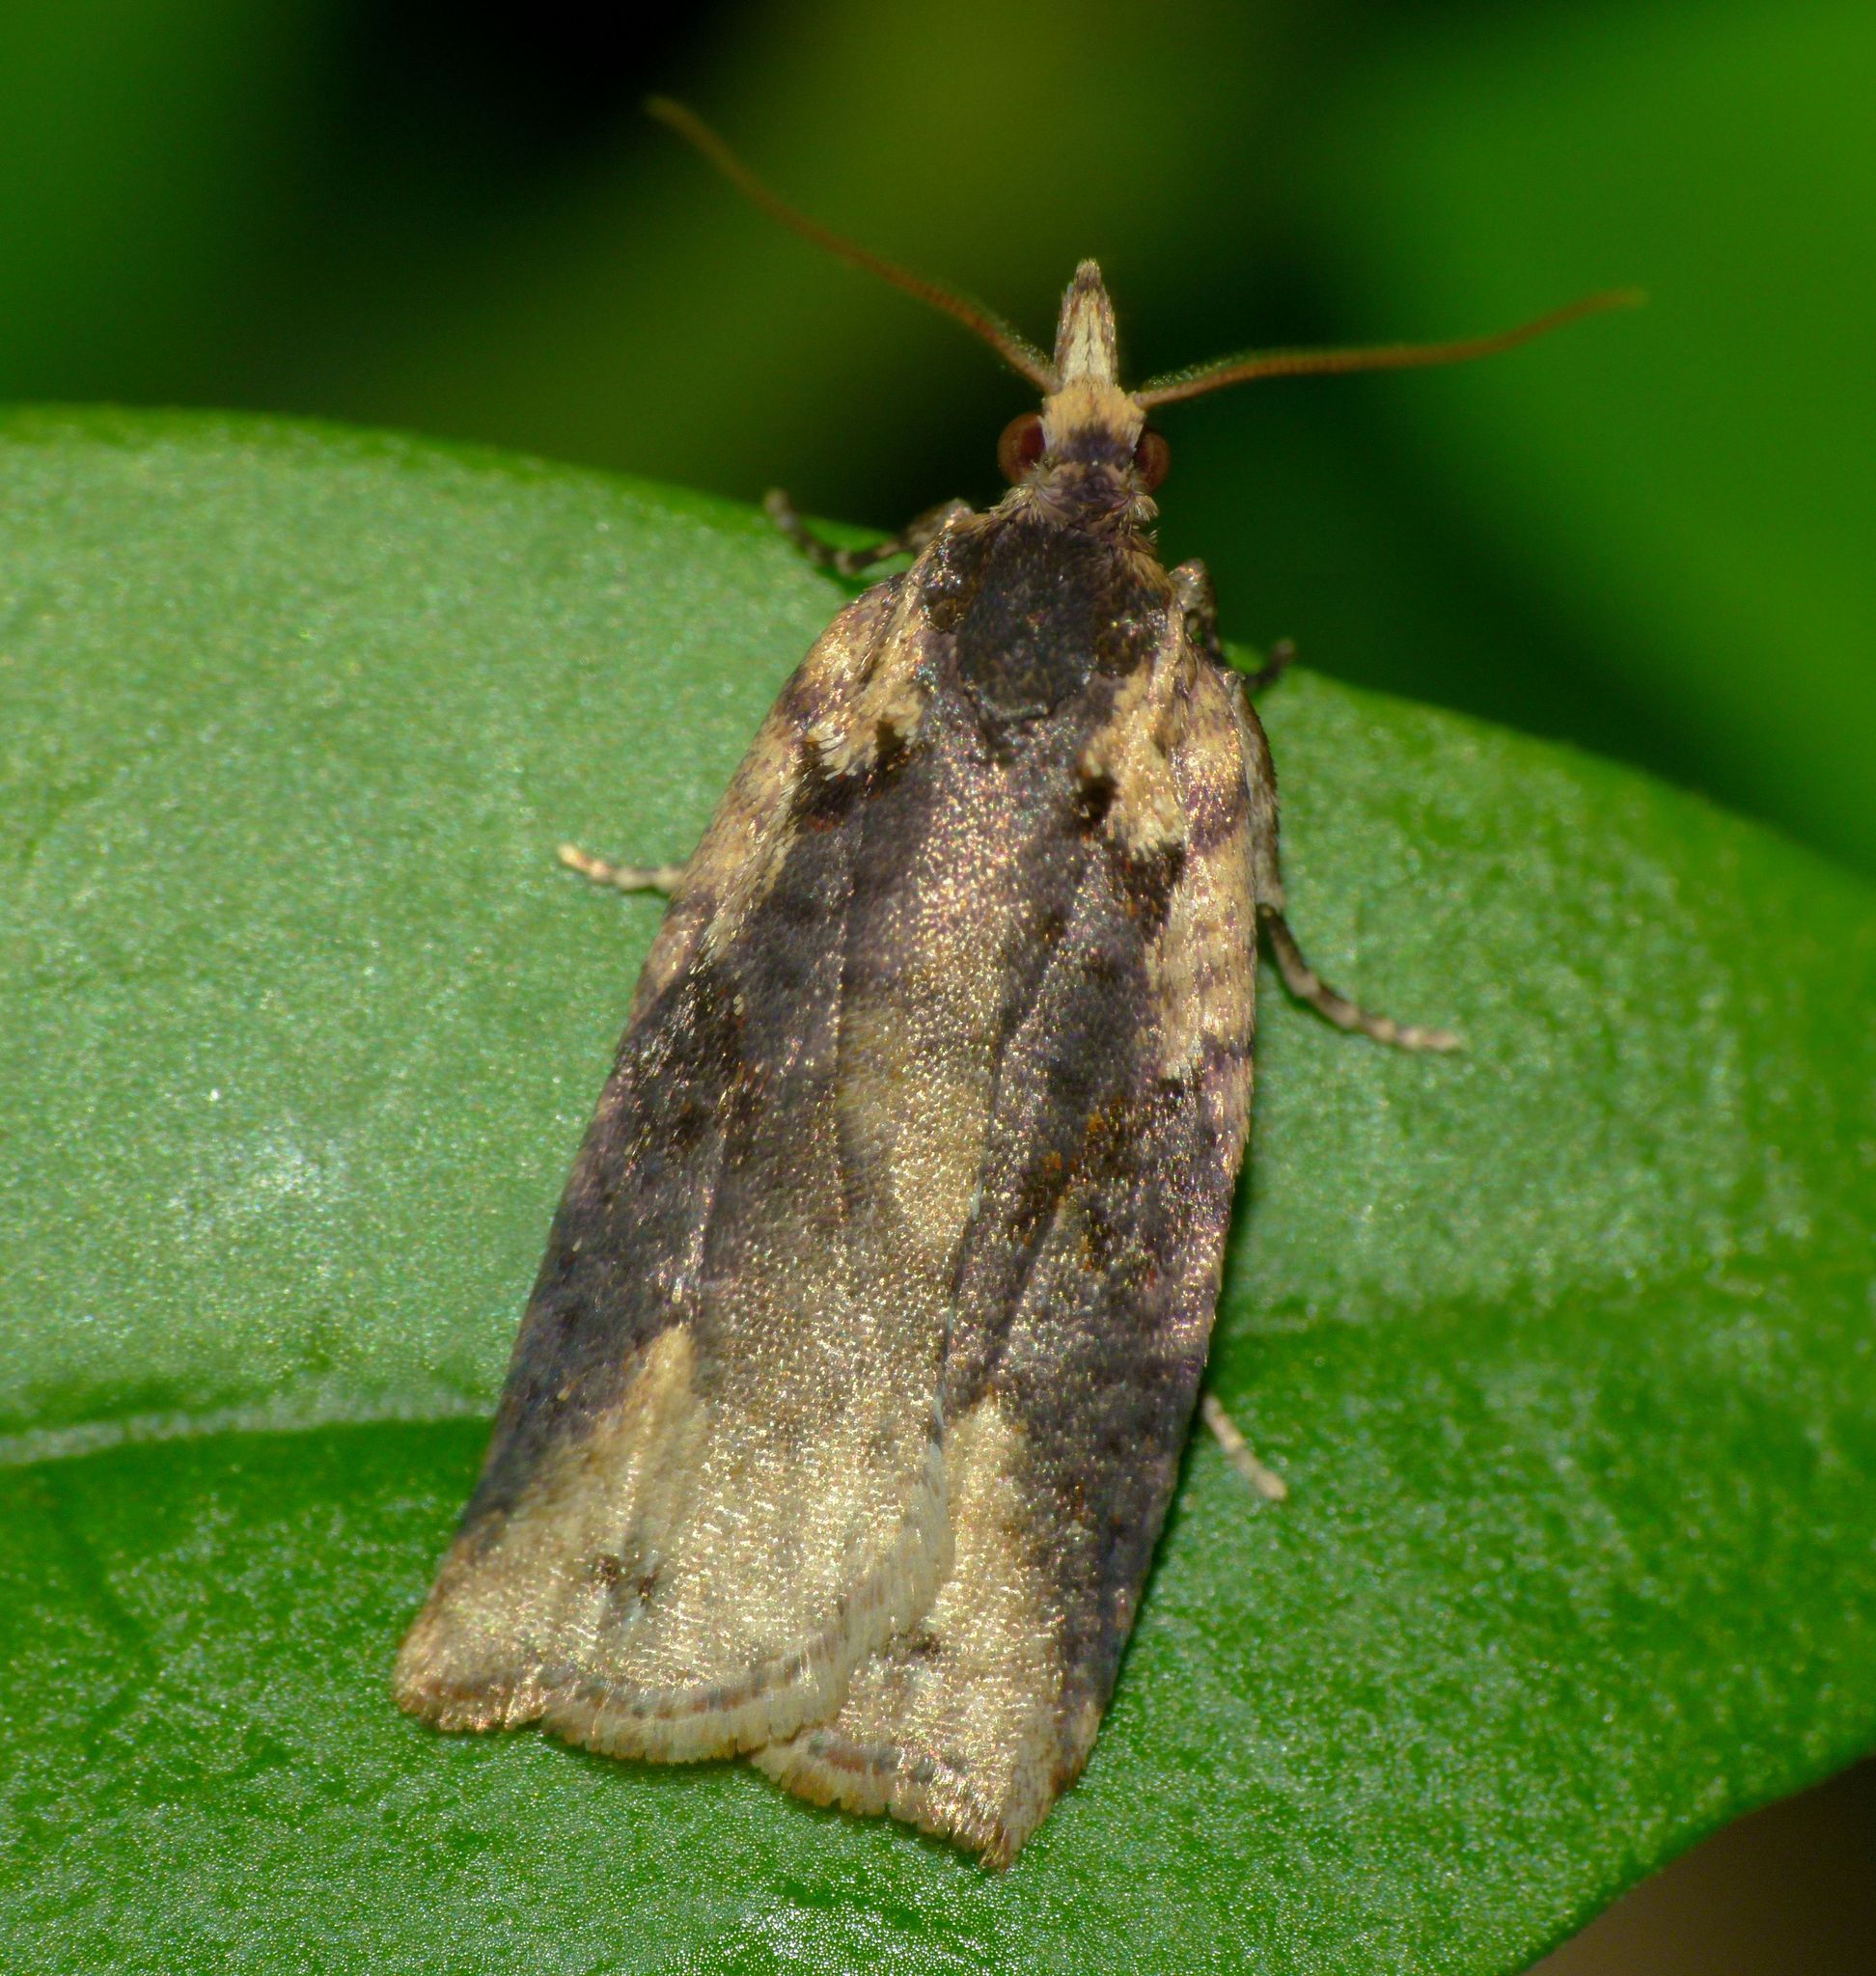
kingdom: Animalia
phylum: Arthropoda
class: Insecta
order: Lepidoptera
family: Tortricidae
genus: Ctenopseustis
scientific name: Ctenopseustis obliquana
